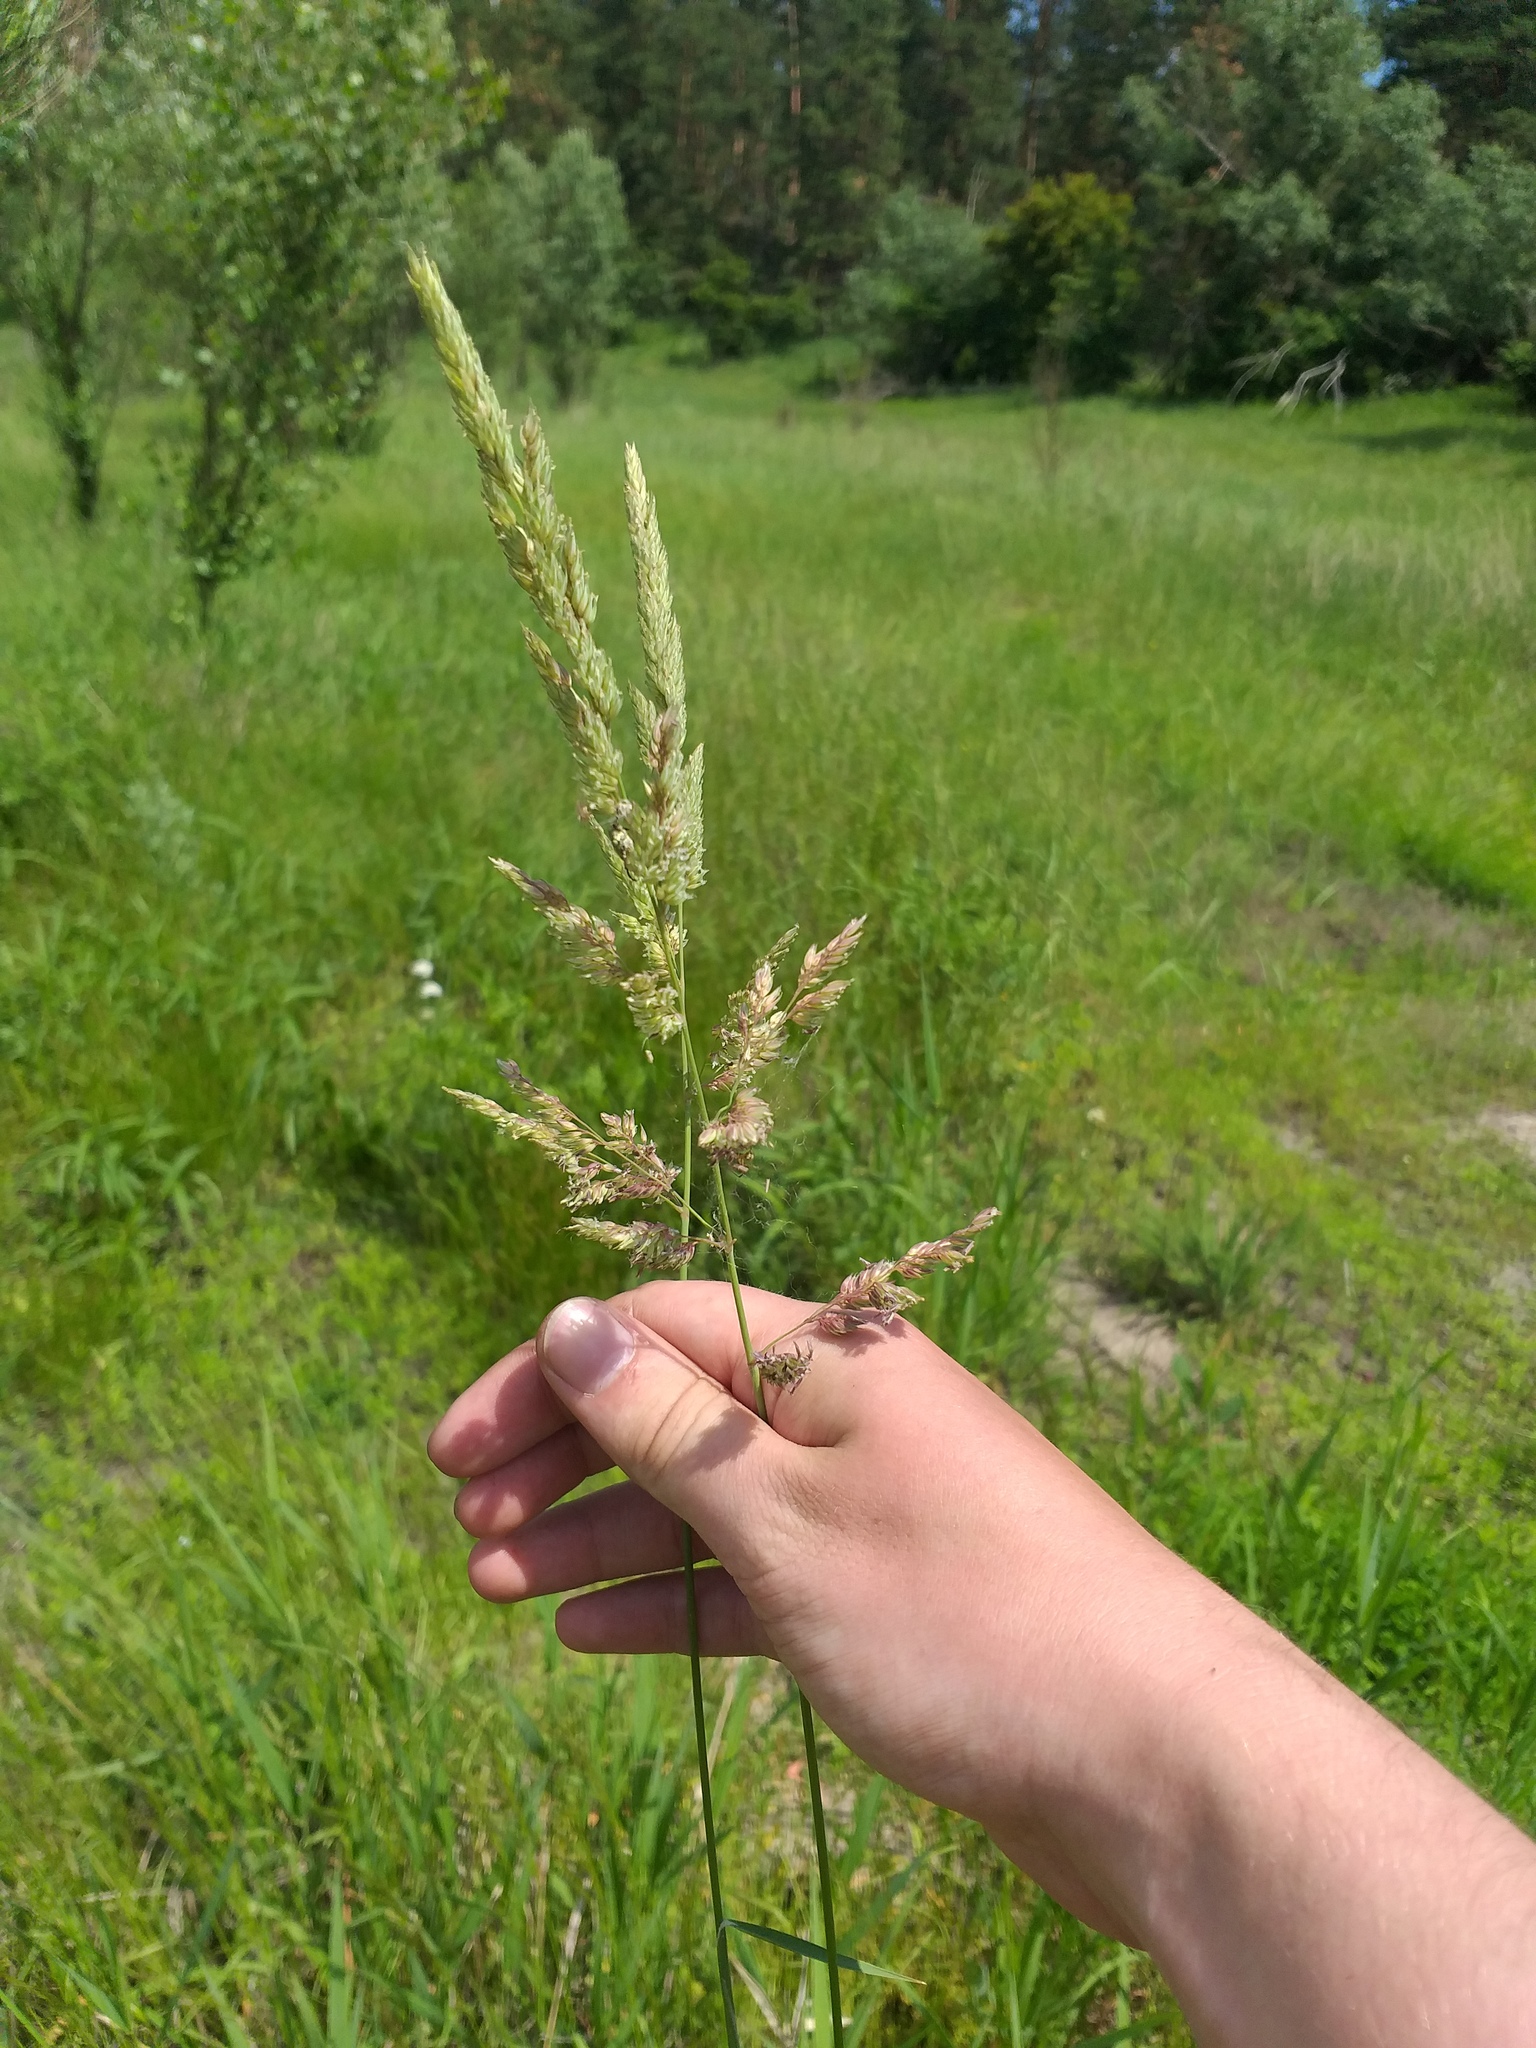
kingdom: Plantae
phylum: Tracheophyta
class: Liliopsida
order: Poales
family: Poaceae
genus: Phalaris
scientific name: Phalaris arundinacea
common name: Reed canary-grass
